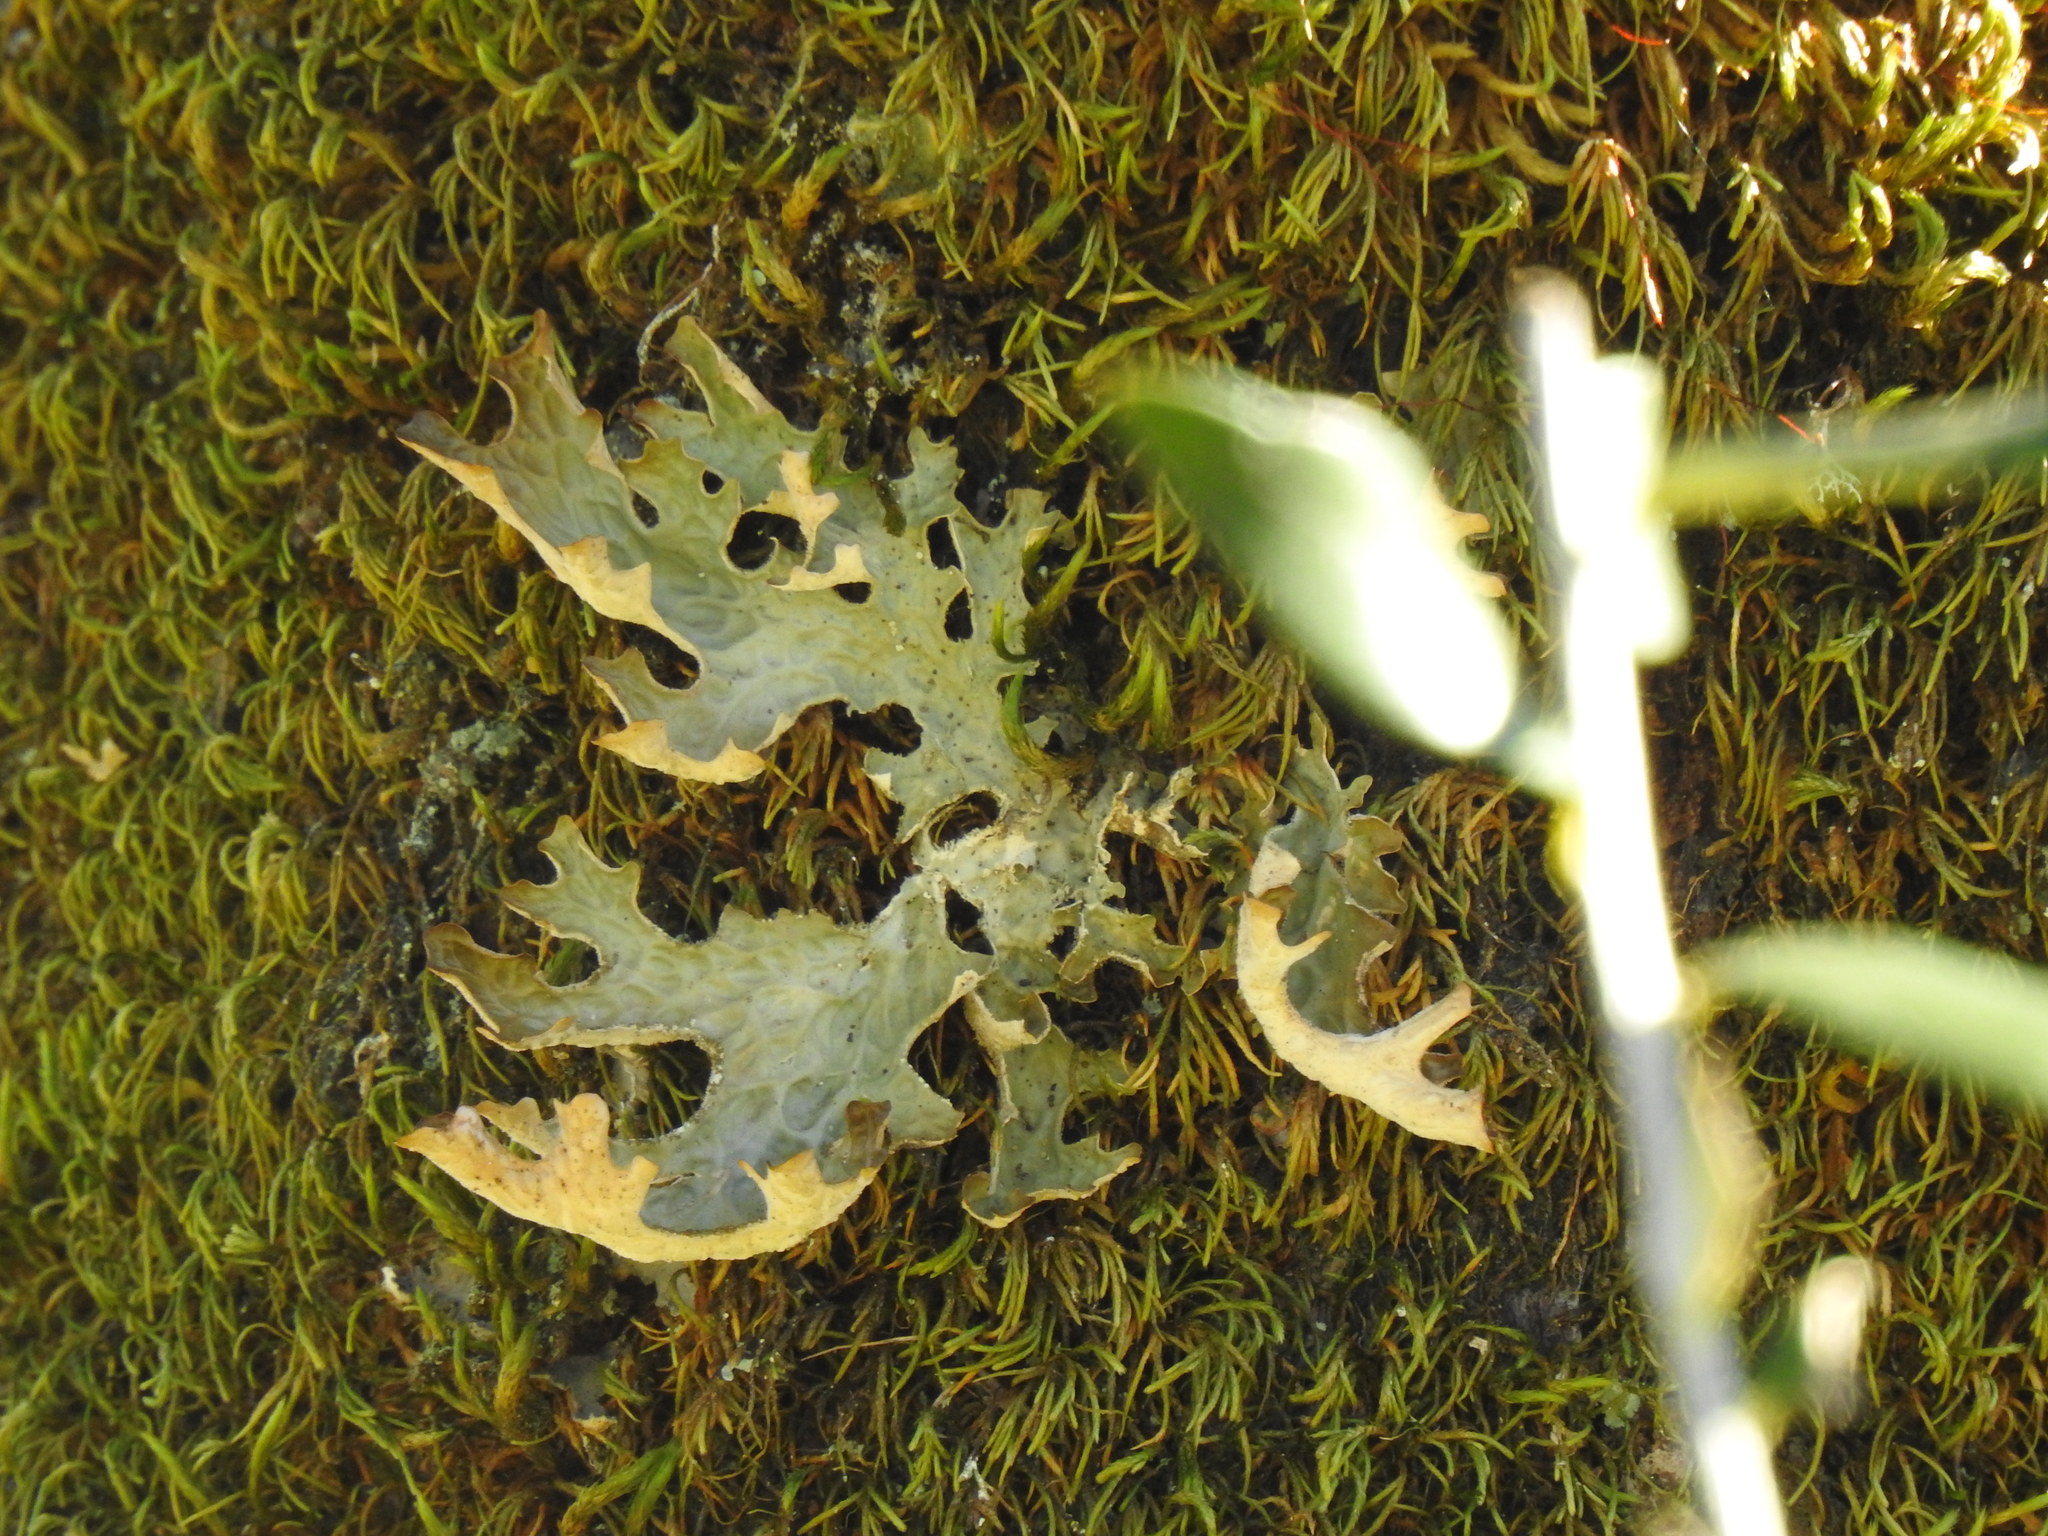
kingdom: Fungi
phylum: Ascomycota
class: Lecanoromycetes
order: Peltigerales
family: Lobariaceae
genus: Lobaria
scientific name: Lobaria pulmonaria
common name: Lungwort
